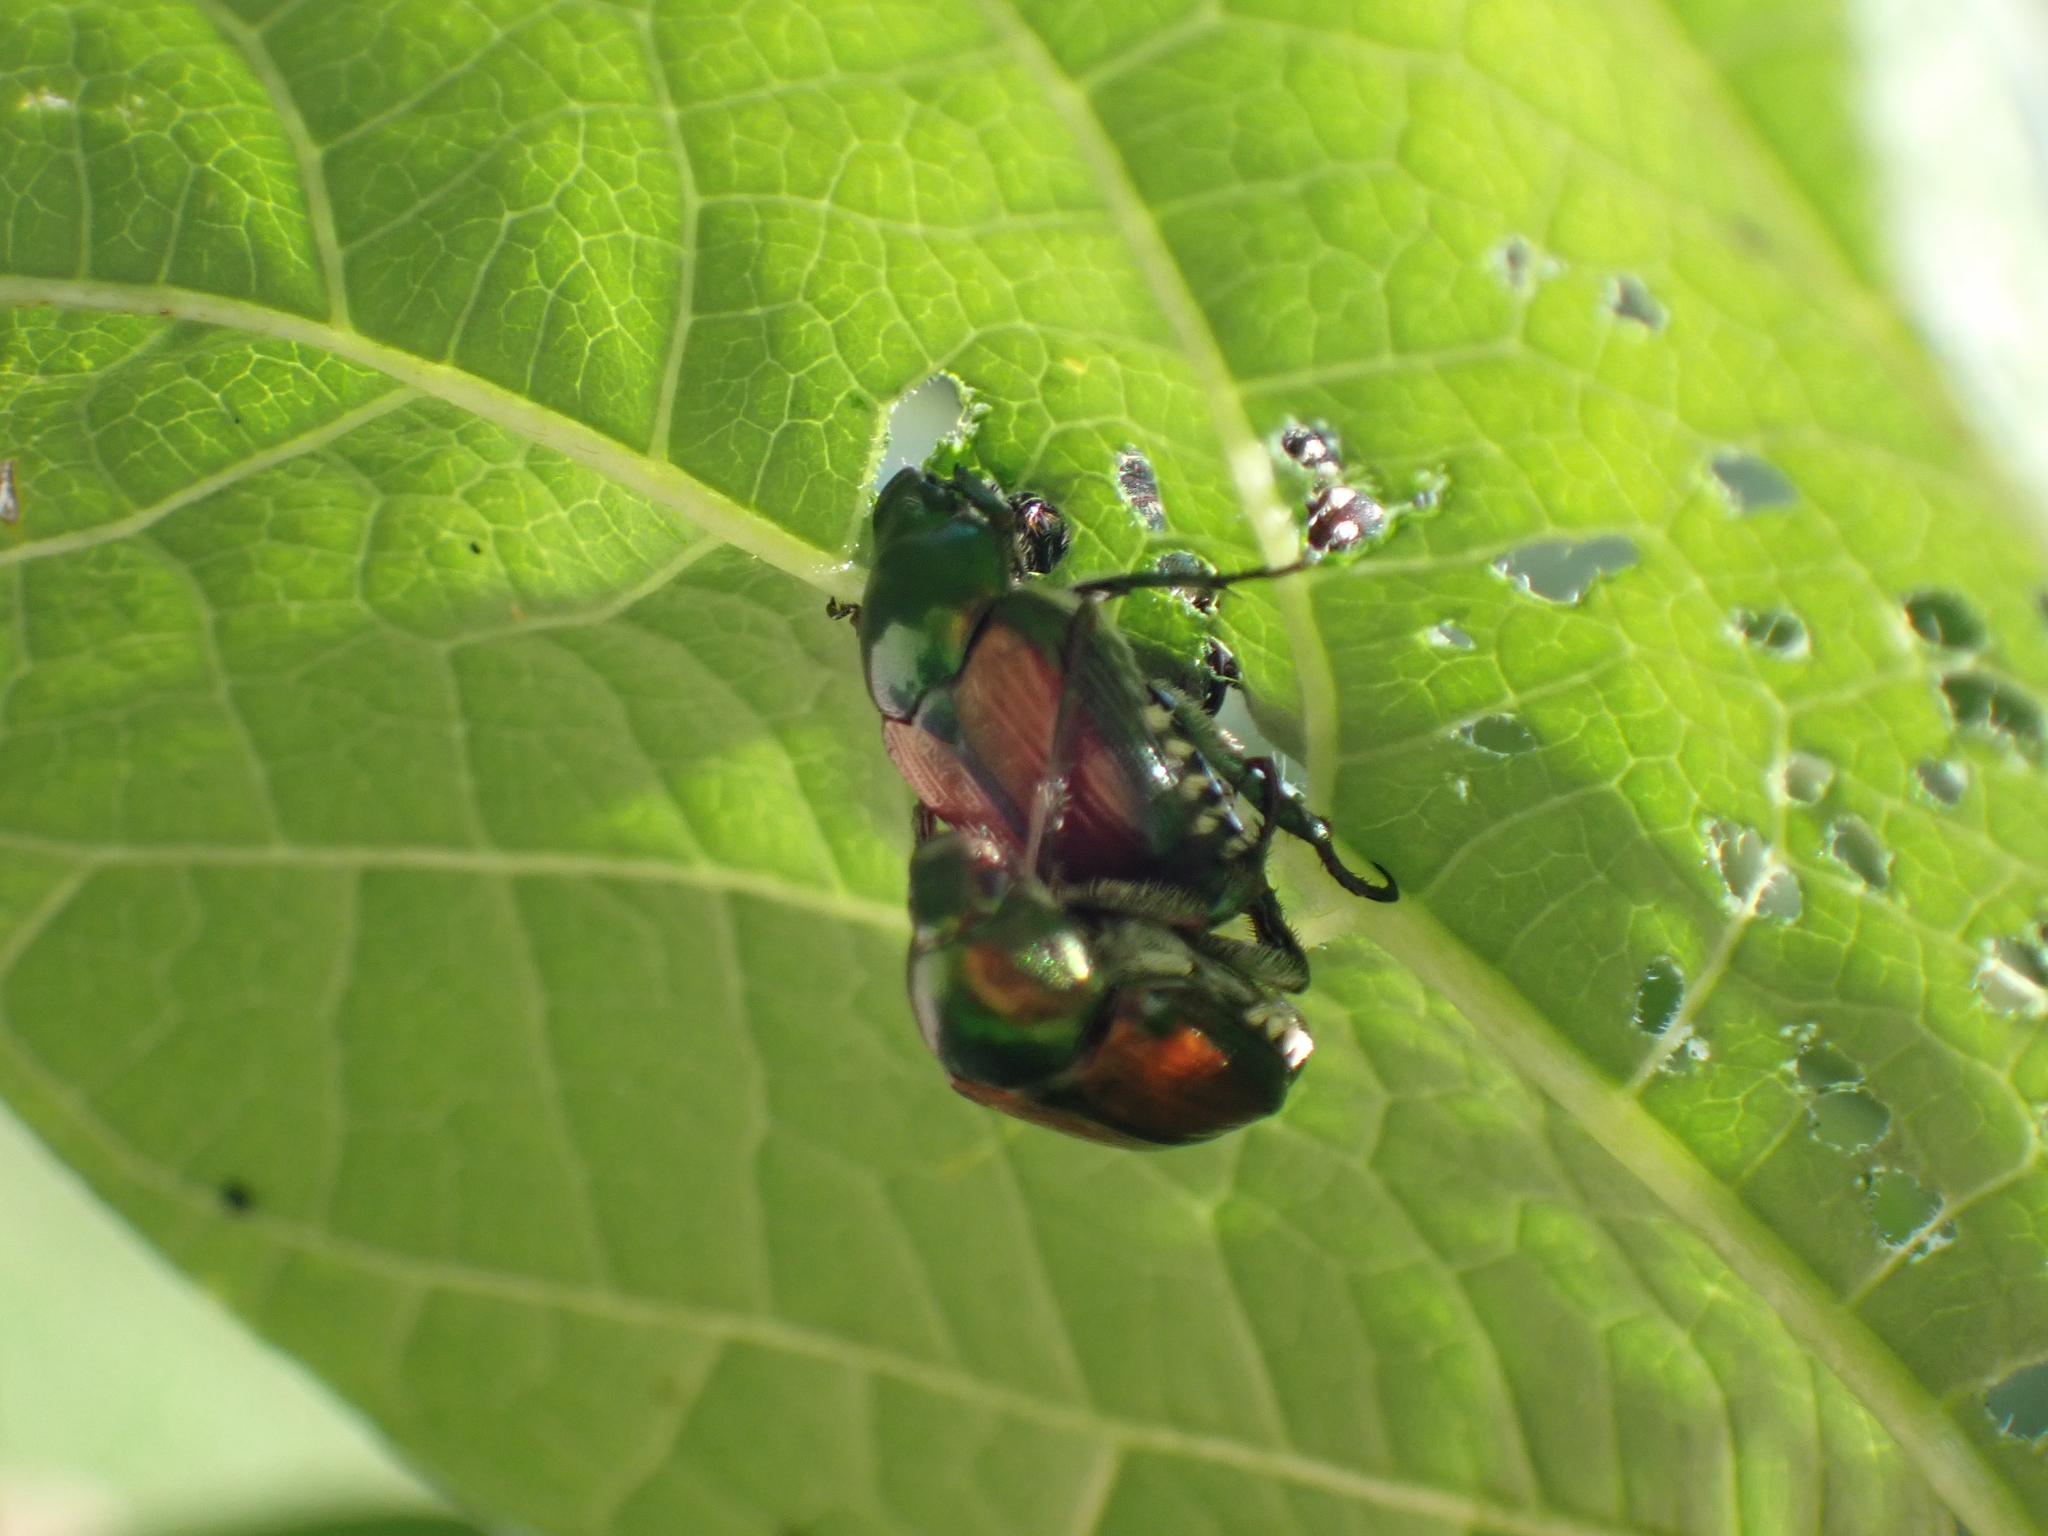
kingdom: Animalia
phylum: Arthropoda
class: Insecta
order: Coleoptera
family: Scarabaeidae
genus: Popillia
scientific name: Popillia japonica
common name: Japanese beetle
